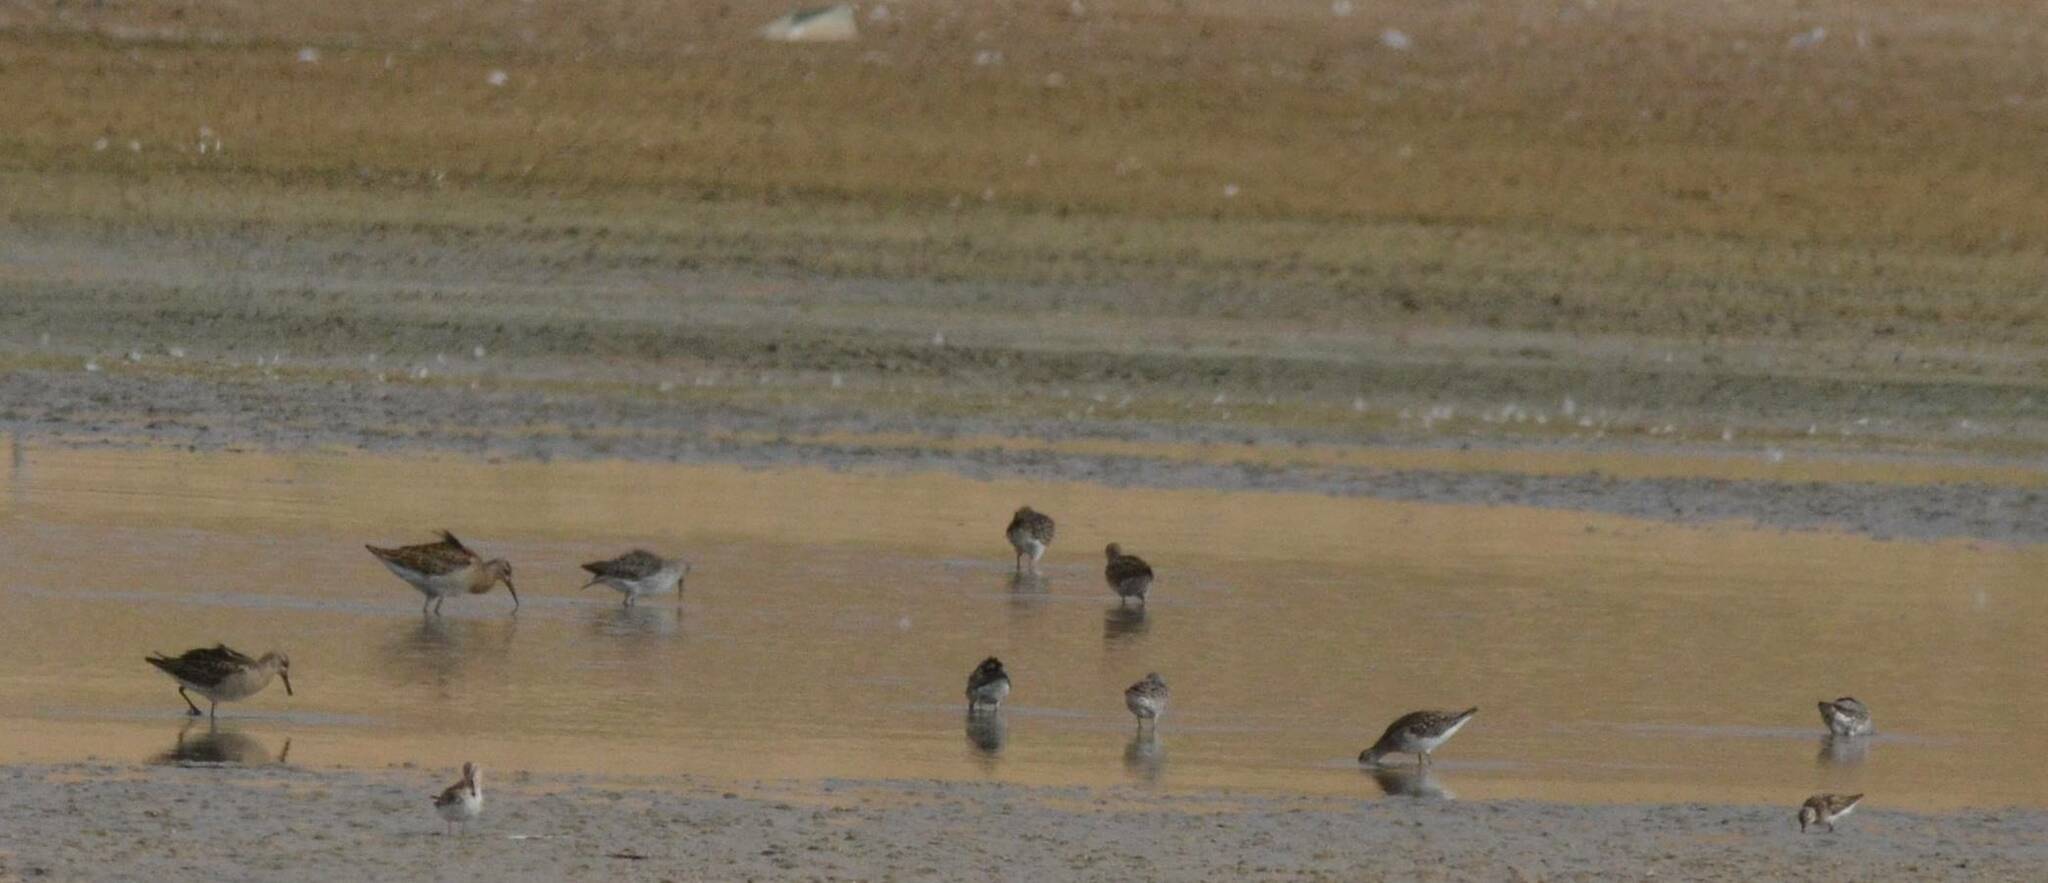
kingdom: Animalia
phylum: Chordata
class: Aves
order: Charadriiformes
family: Scolopacidae
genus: Calidris
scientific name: Calidris pugnax
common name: Ruff
